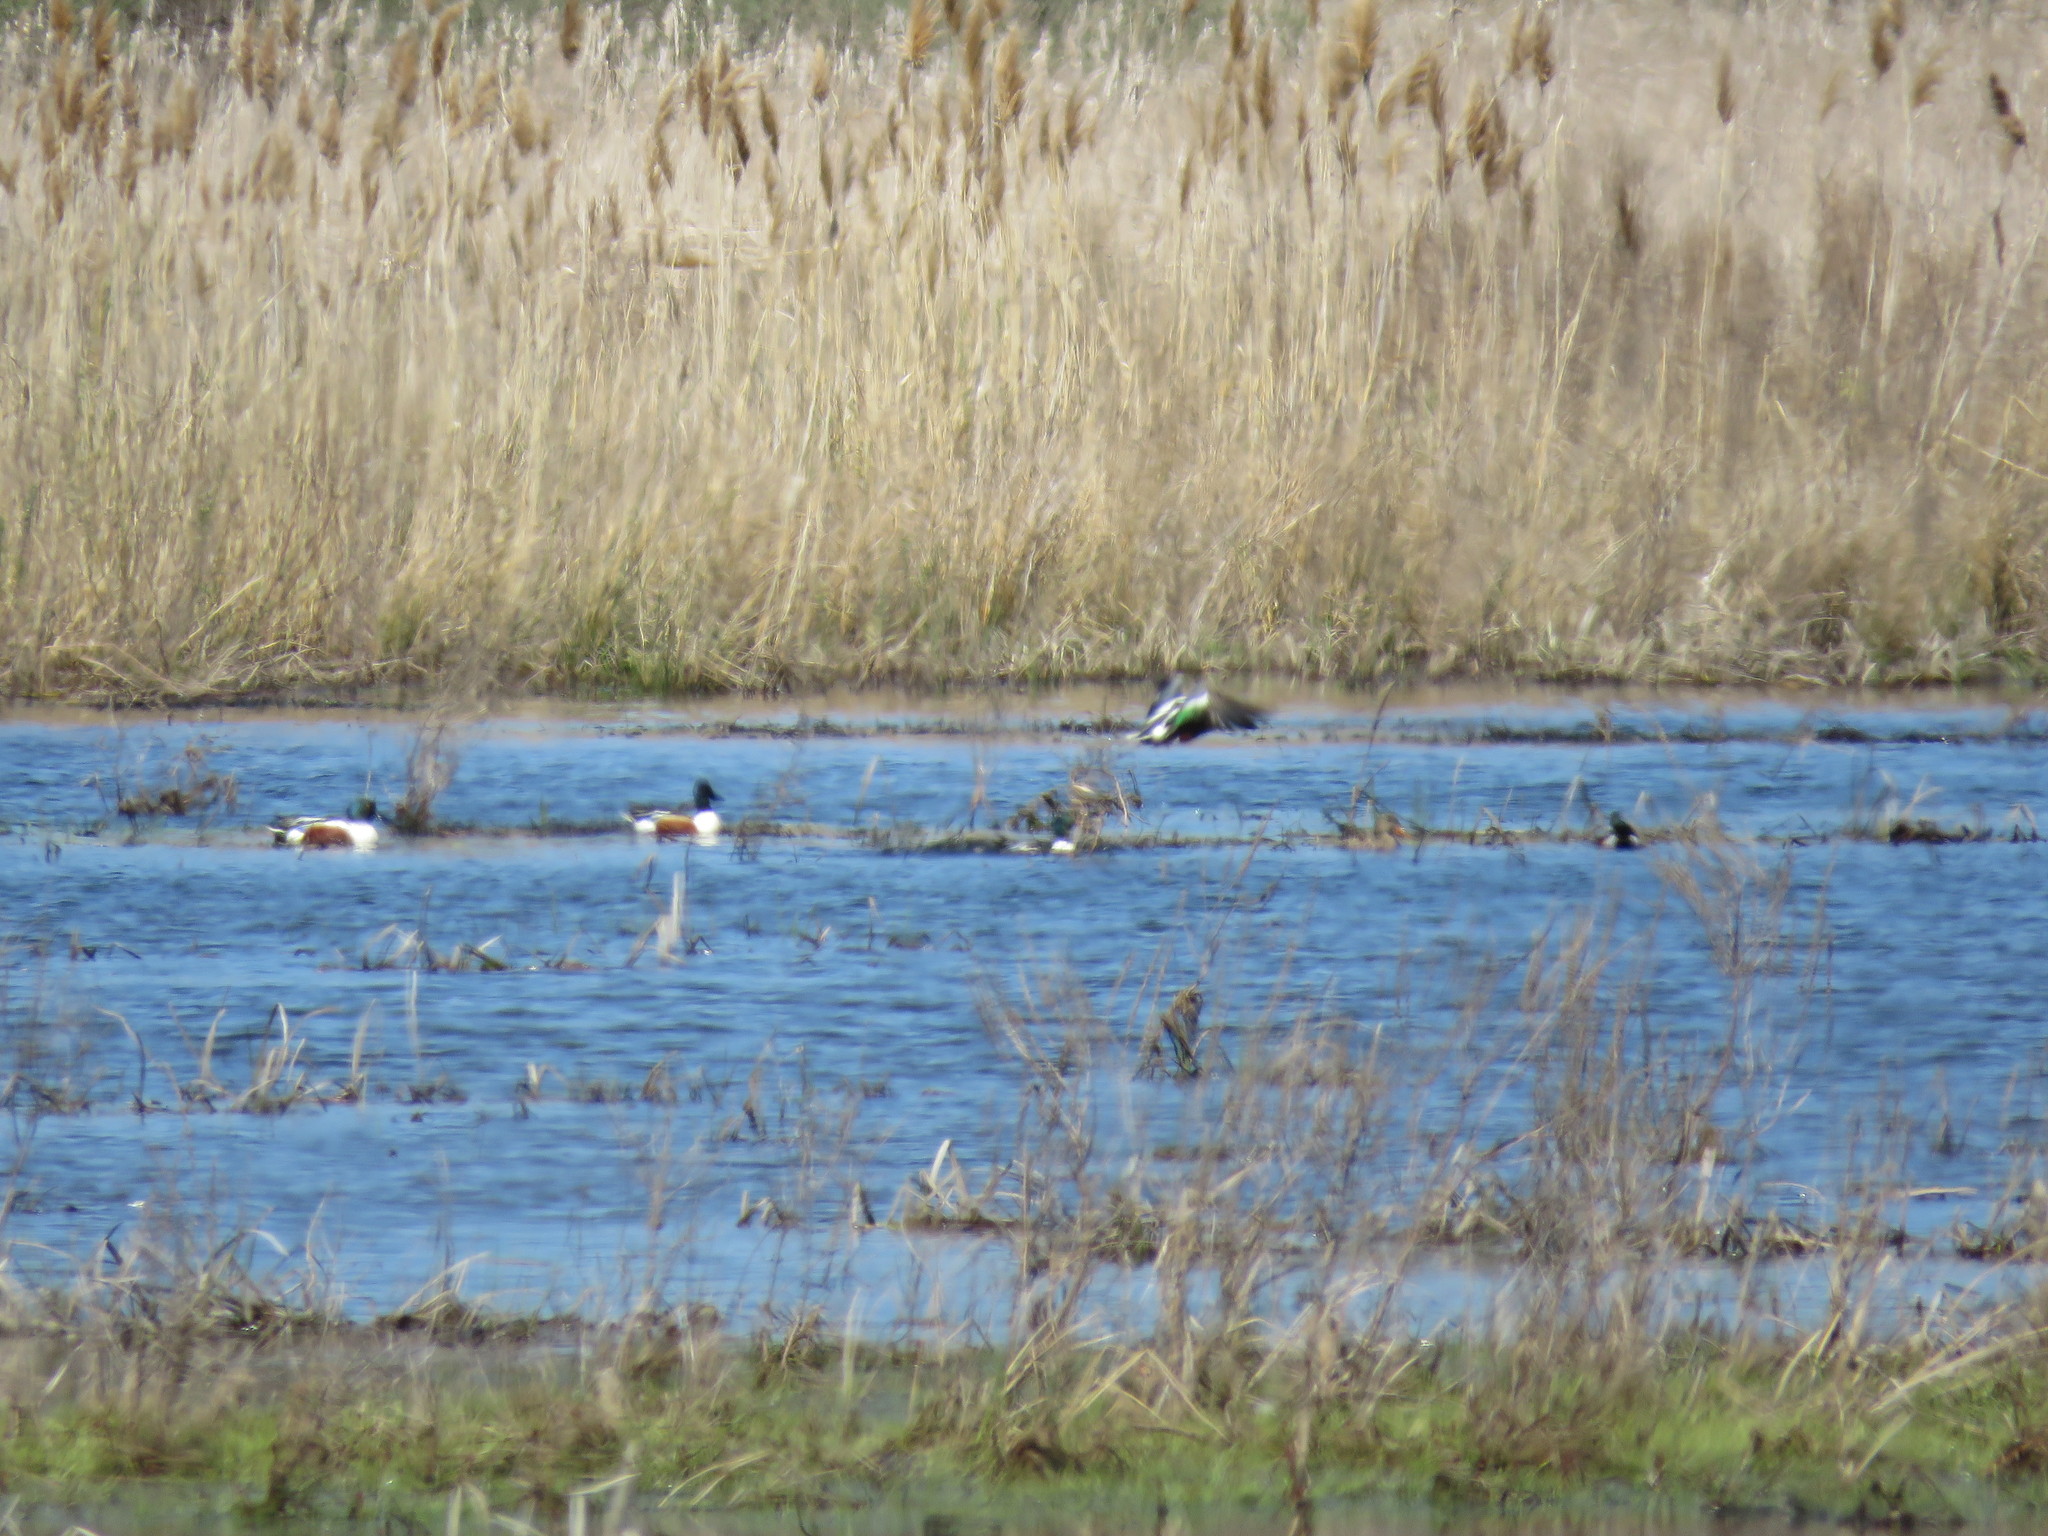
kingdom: Animalia
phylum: Chordata
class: Aves
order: Anseriformes
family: Anatidae
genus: Spatula
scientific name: Spatula clypeata
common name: Northern shoveler
